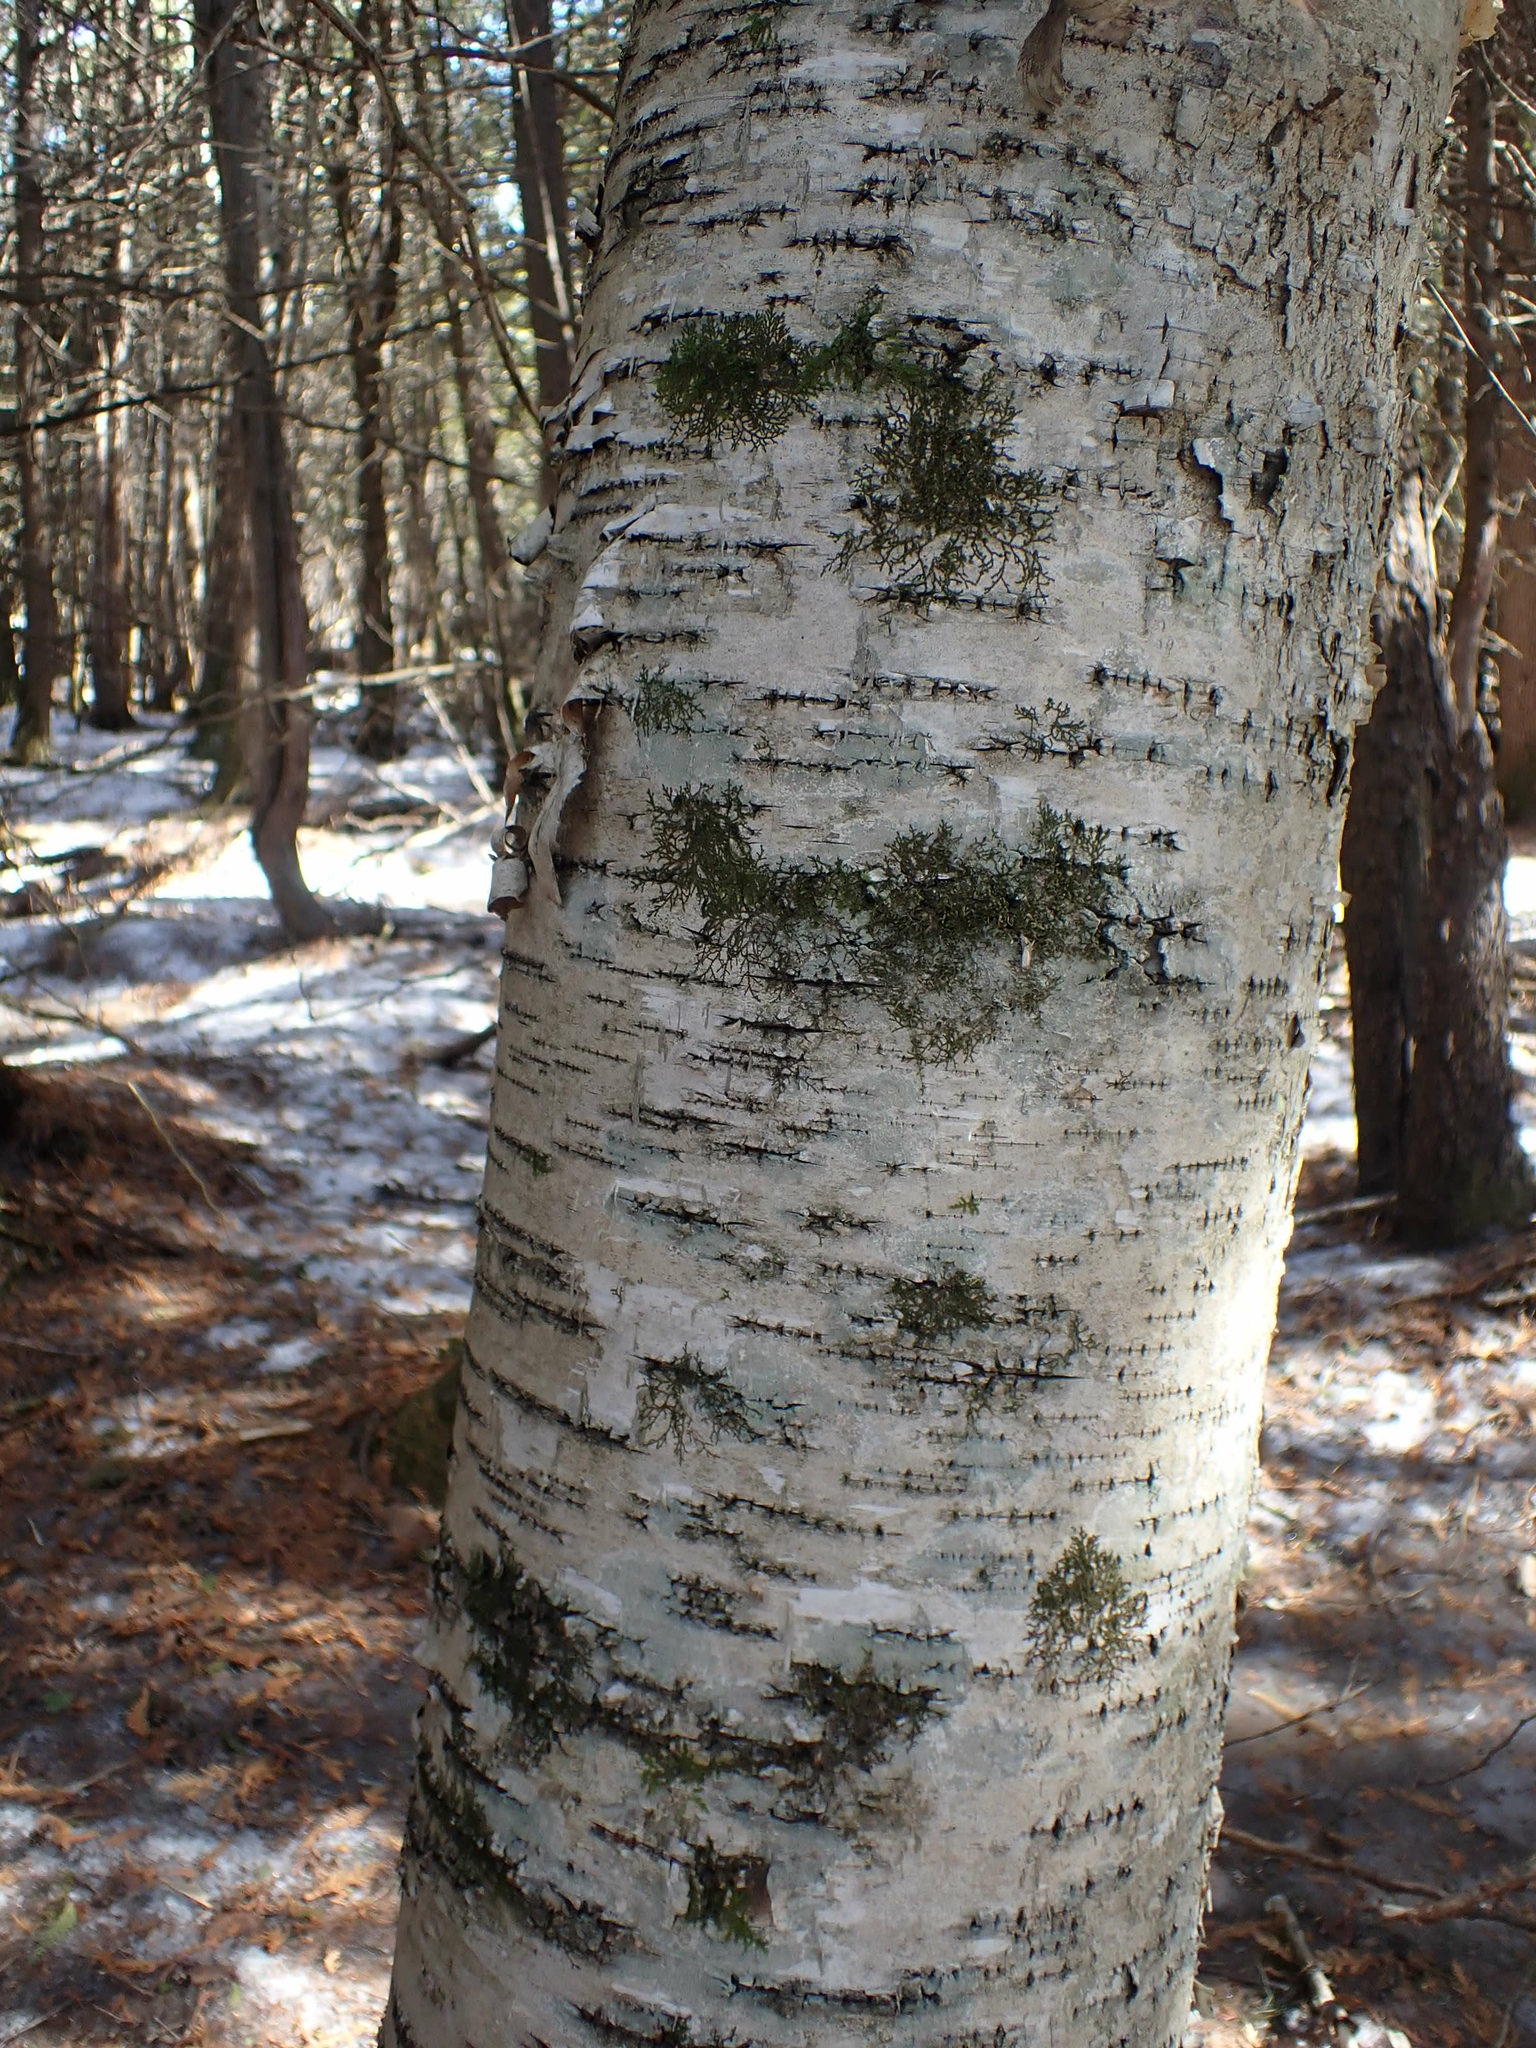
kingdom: Plantae
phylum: Tracheophyta
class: Magnoliopsida
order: Fagales
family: Betulaceae
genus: Betula
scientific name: Betula papyrifera
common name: Paper birch
